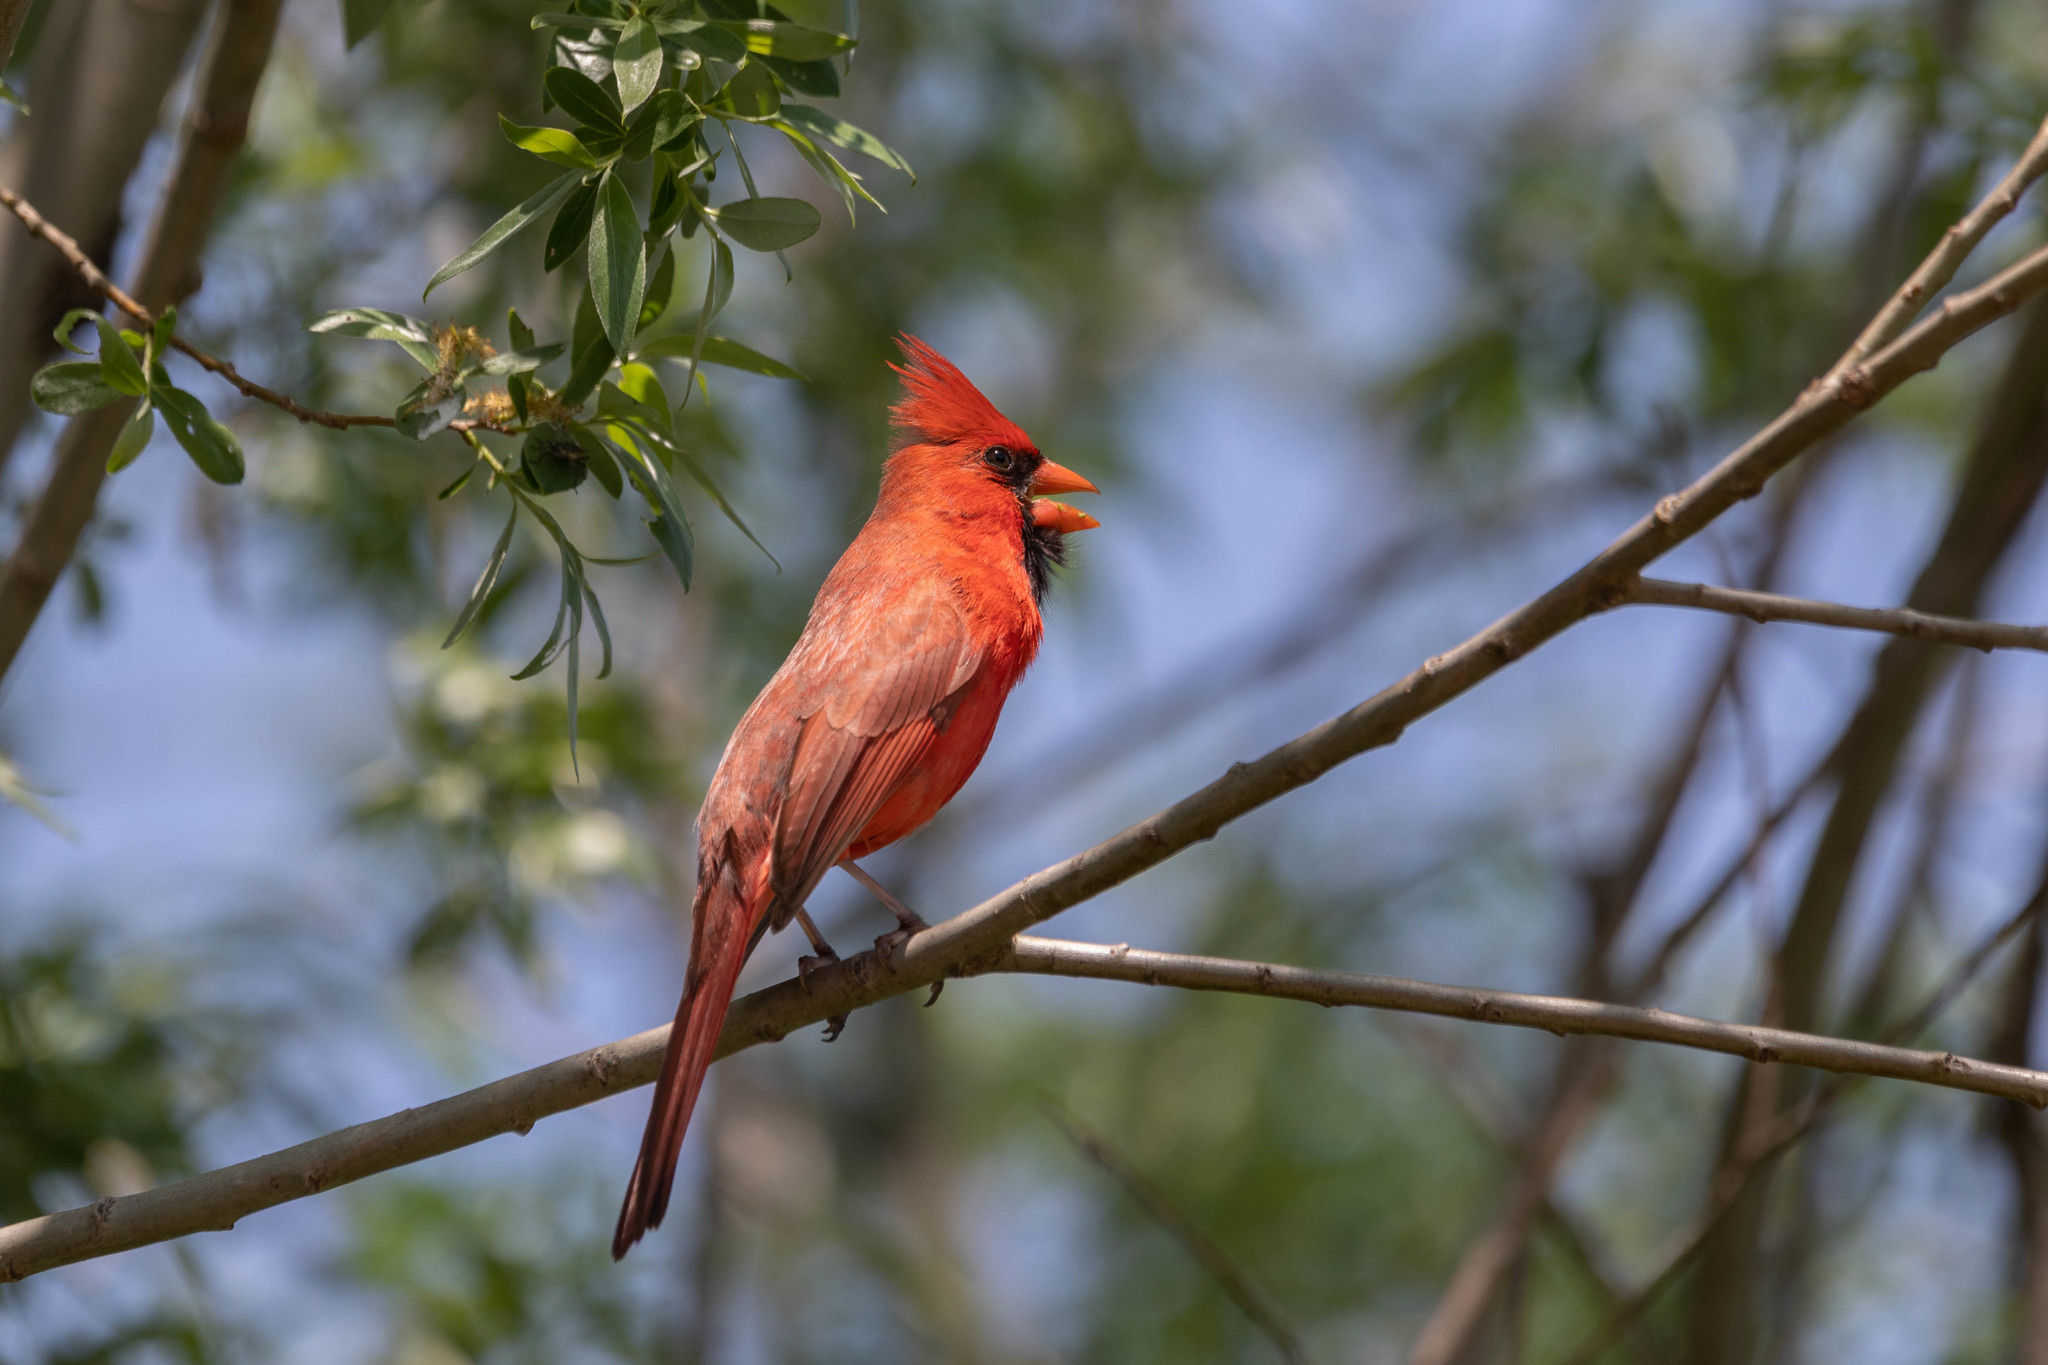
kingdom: Animalia
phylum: Chordata
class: Aves
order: Passeriformes
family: Cardinalidae
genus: Cardinalis
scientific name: Cardinalis cardinalis
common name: Northern cardinal
